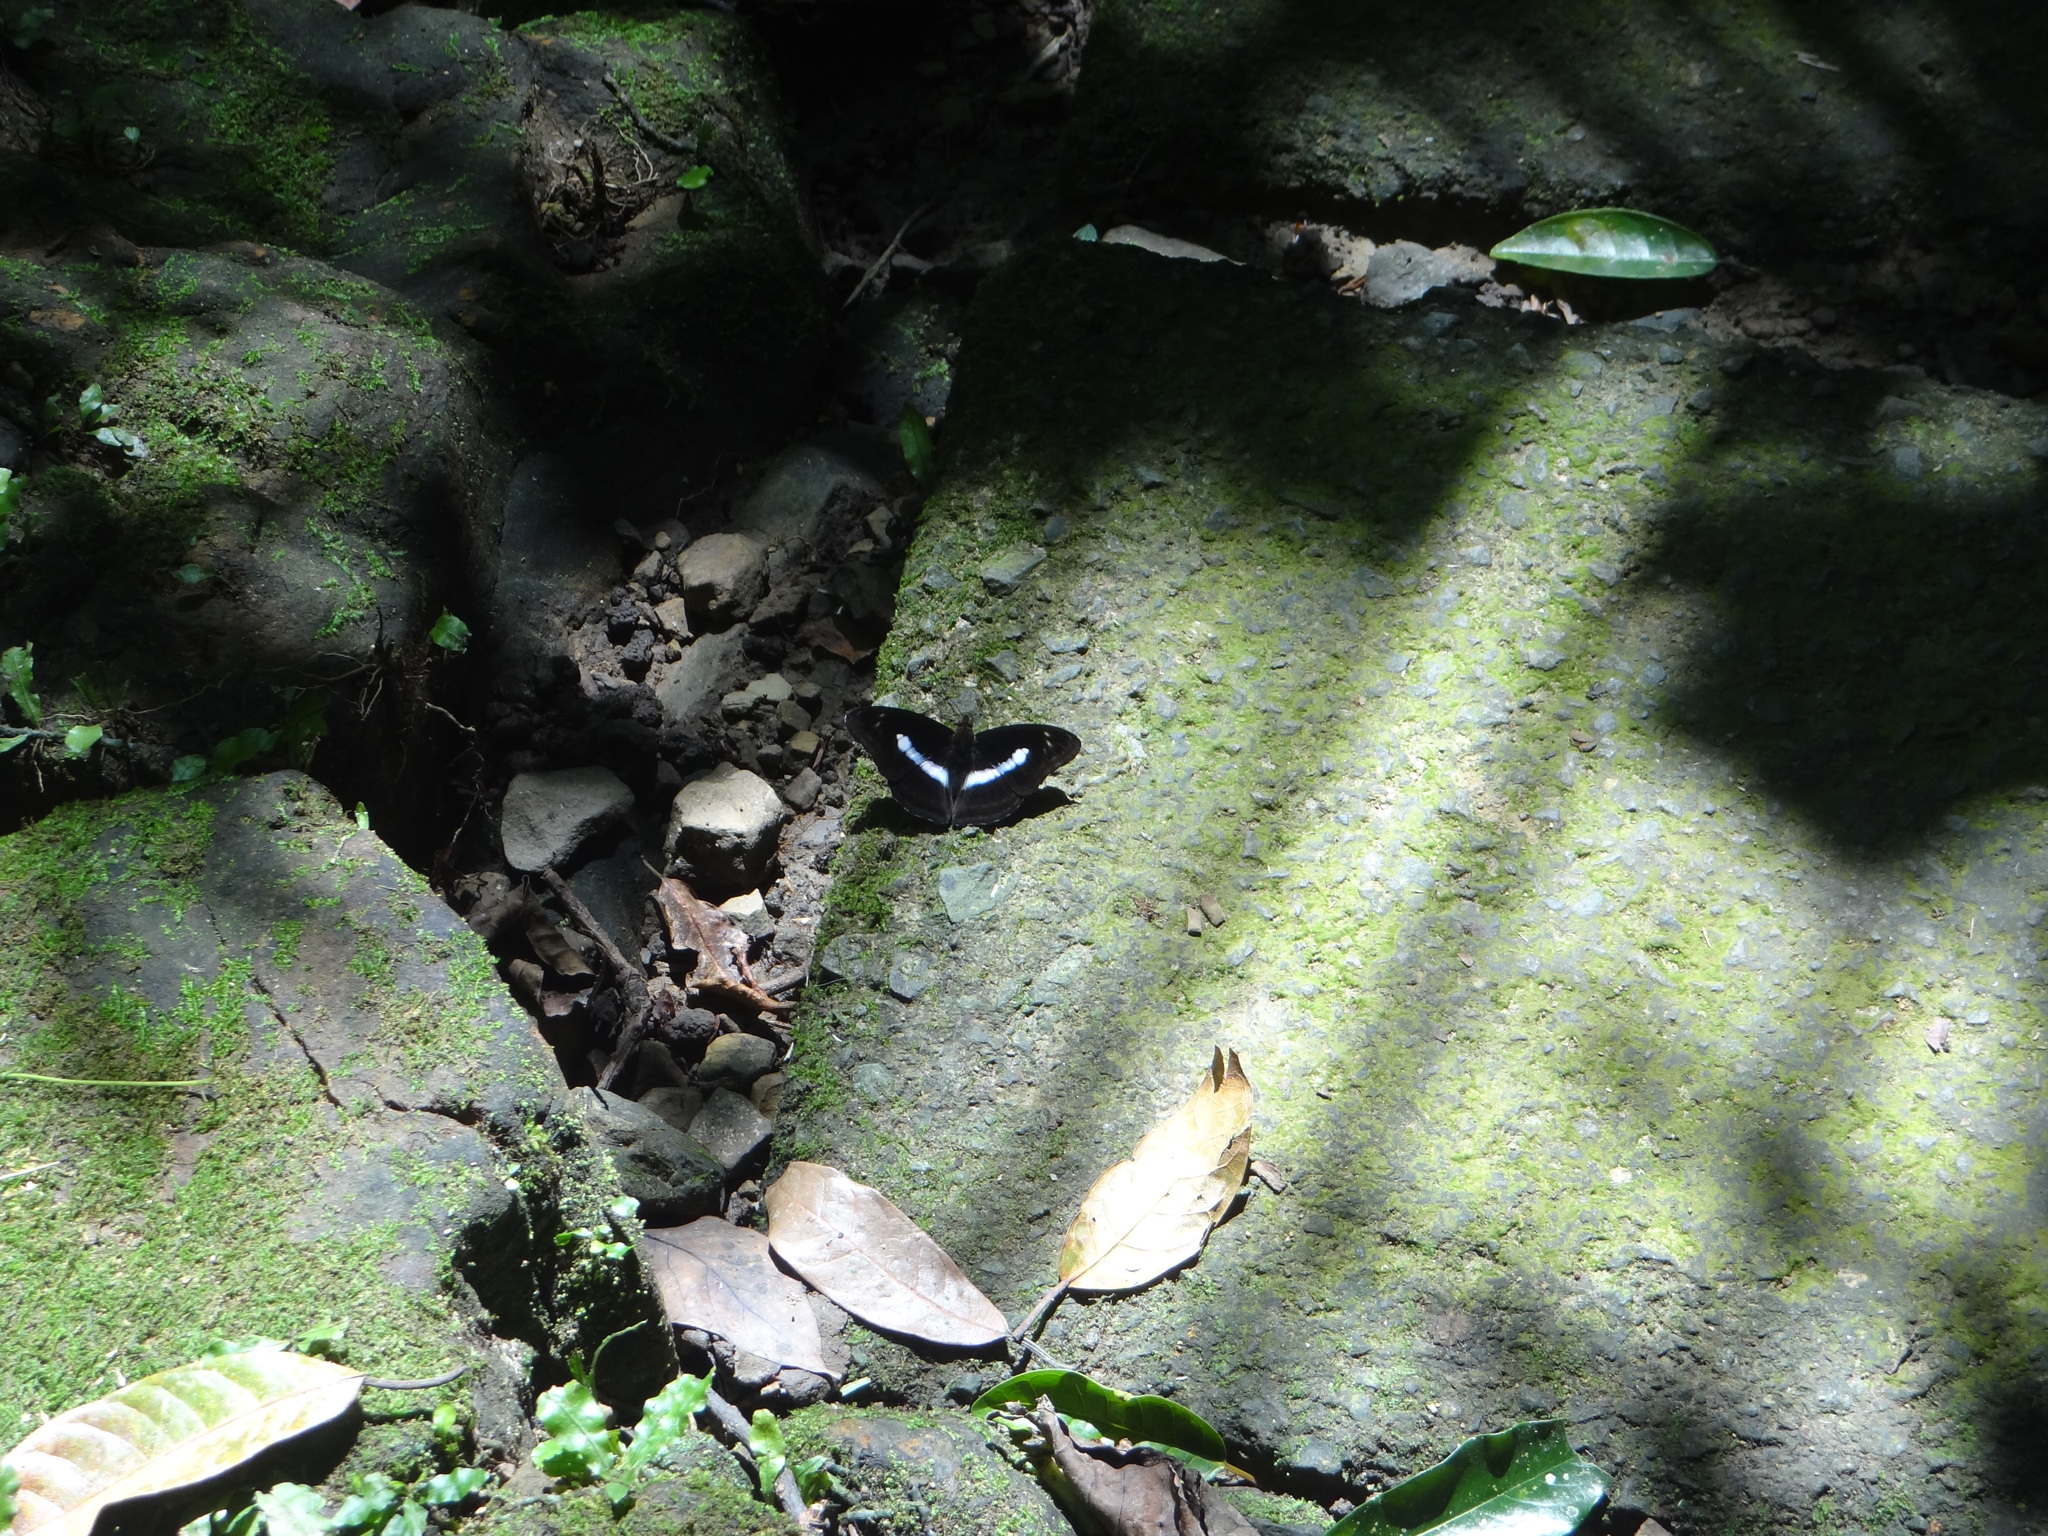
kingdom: Animalia
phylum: Arthropoda
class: Insecta
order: Lepidoptera
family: Nymphalidae
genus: Parathyma
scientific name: Parathyma selenophora
